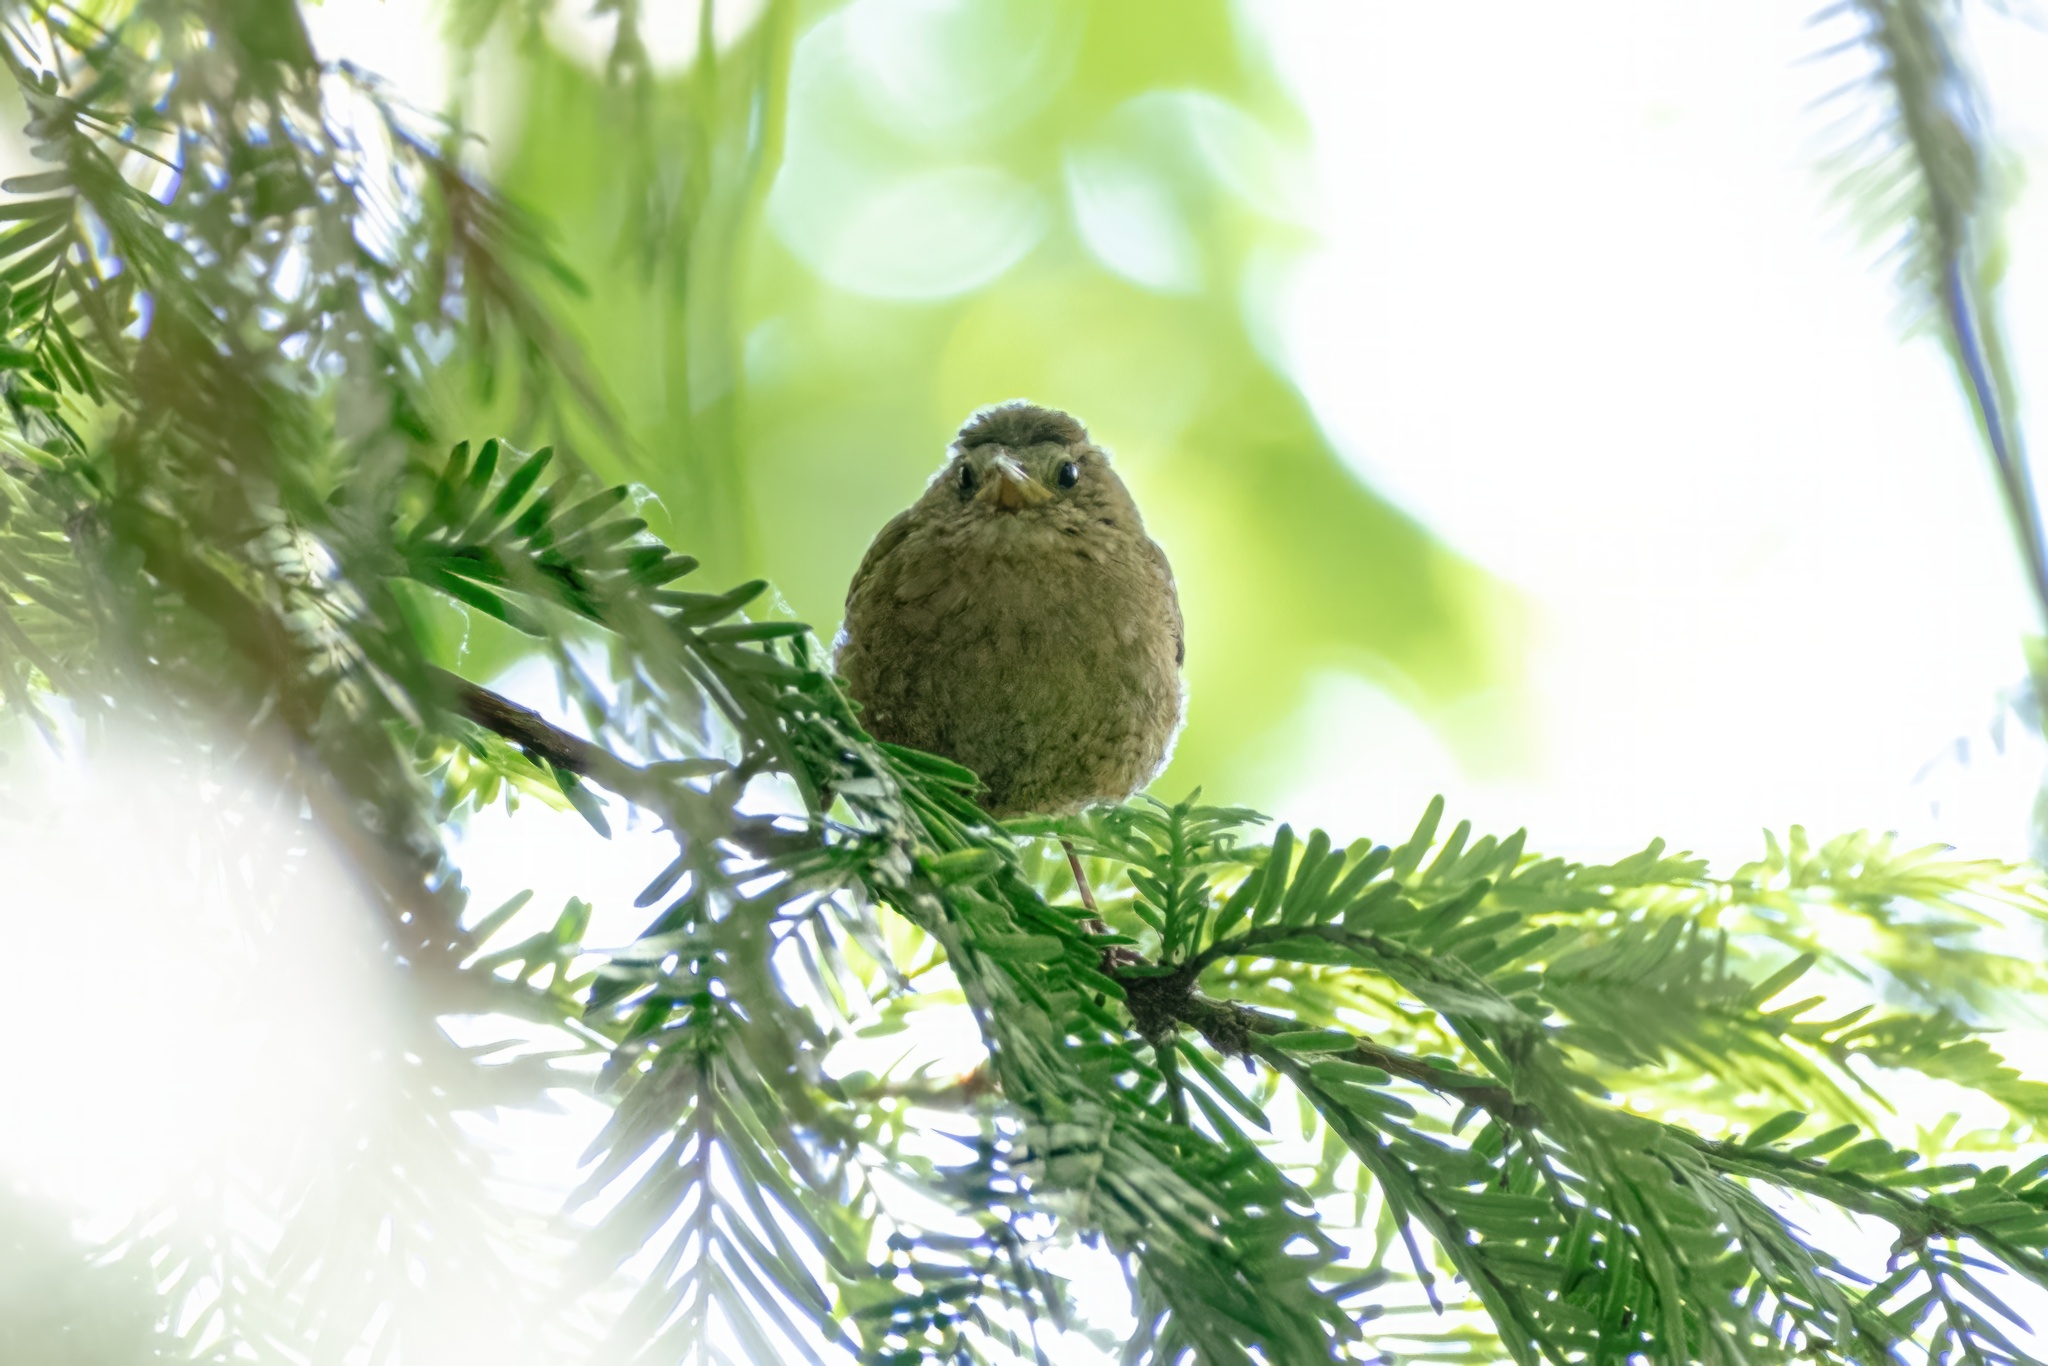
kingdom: Animalia
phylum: Chordata
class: Aves
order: Passeriformes
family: Troglodytidae
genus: Troglodytes
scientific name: Troglodytes troglodytes
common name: Eurasian wren
